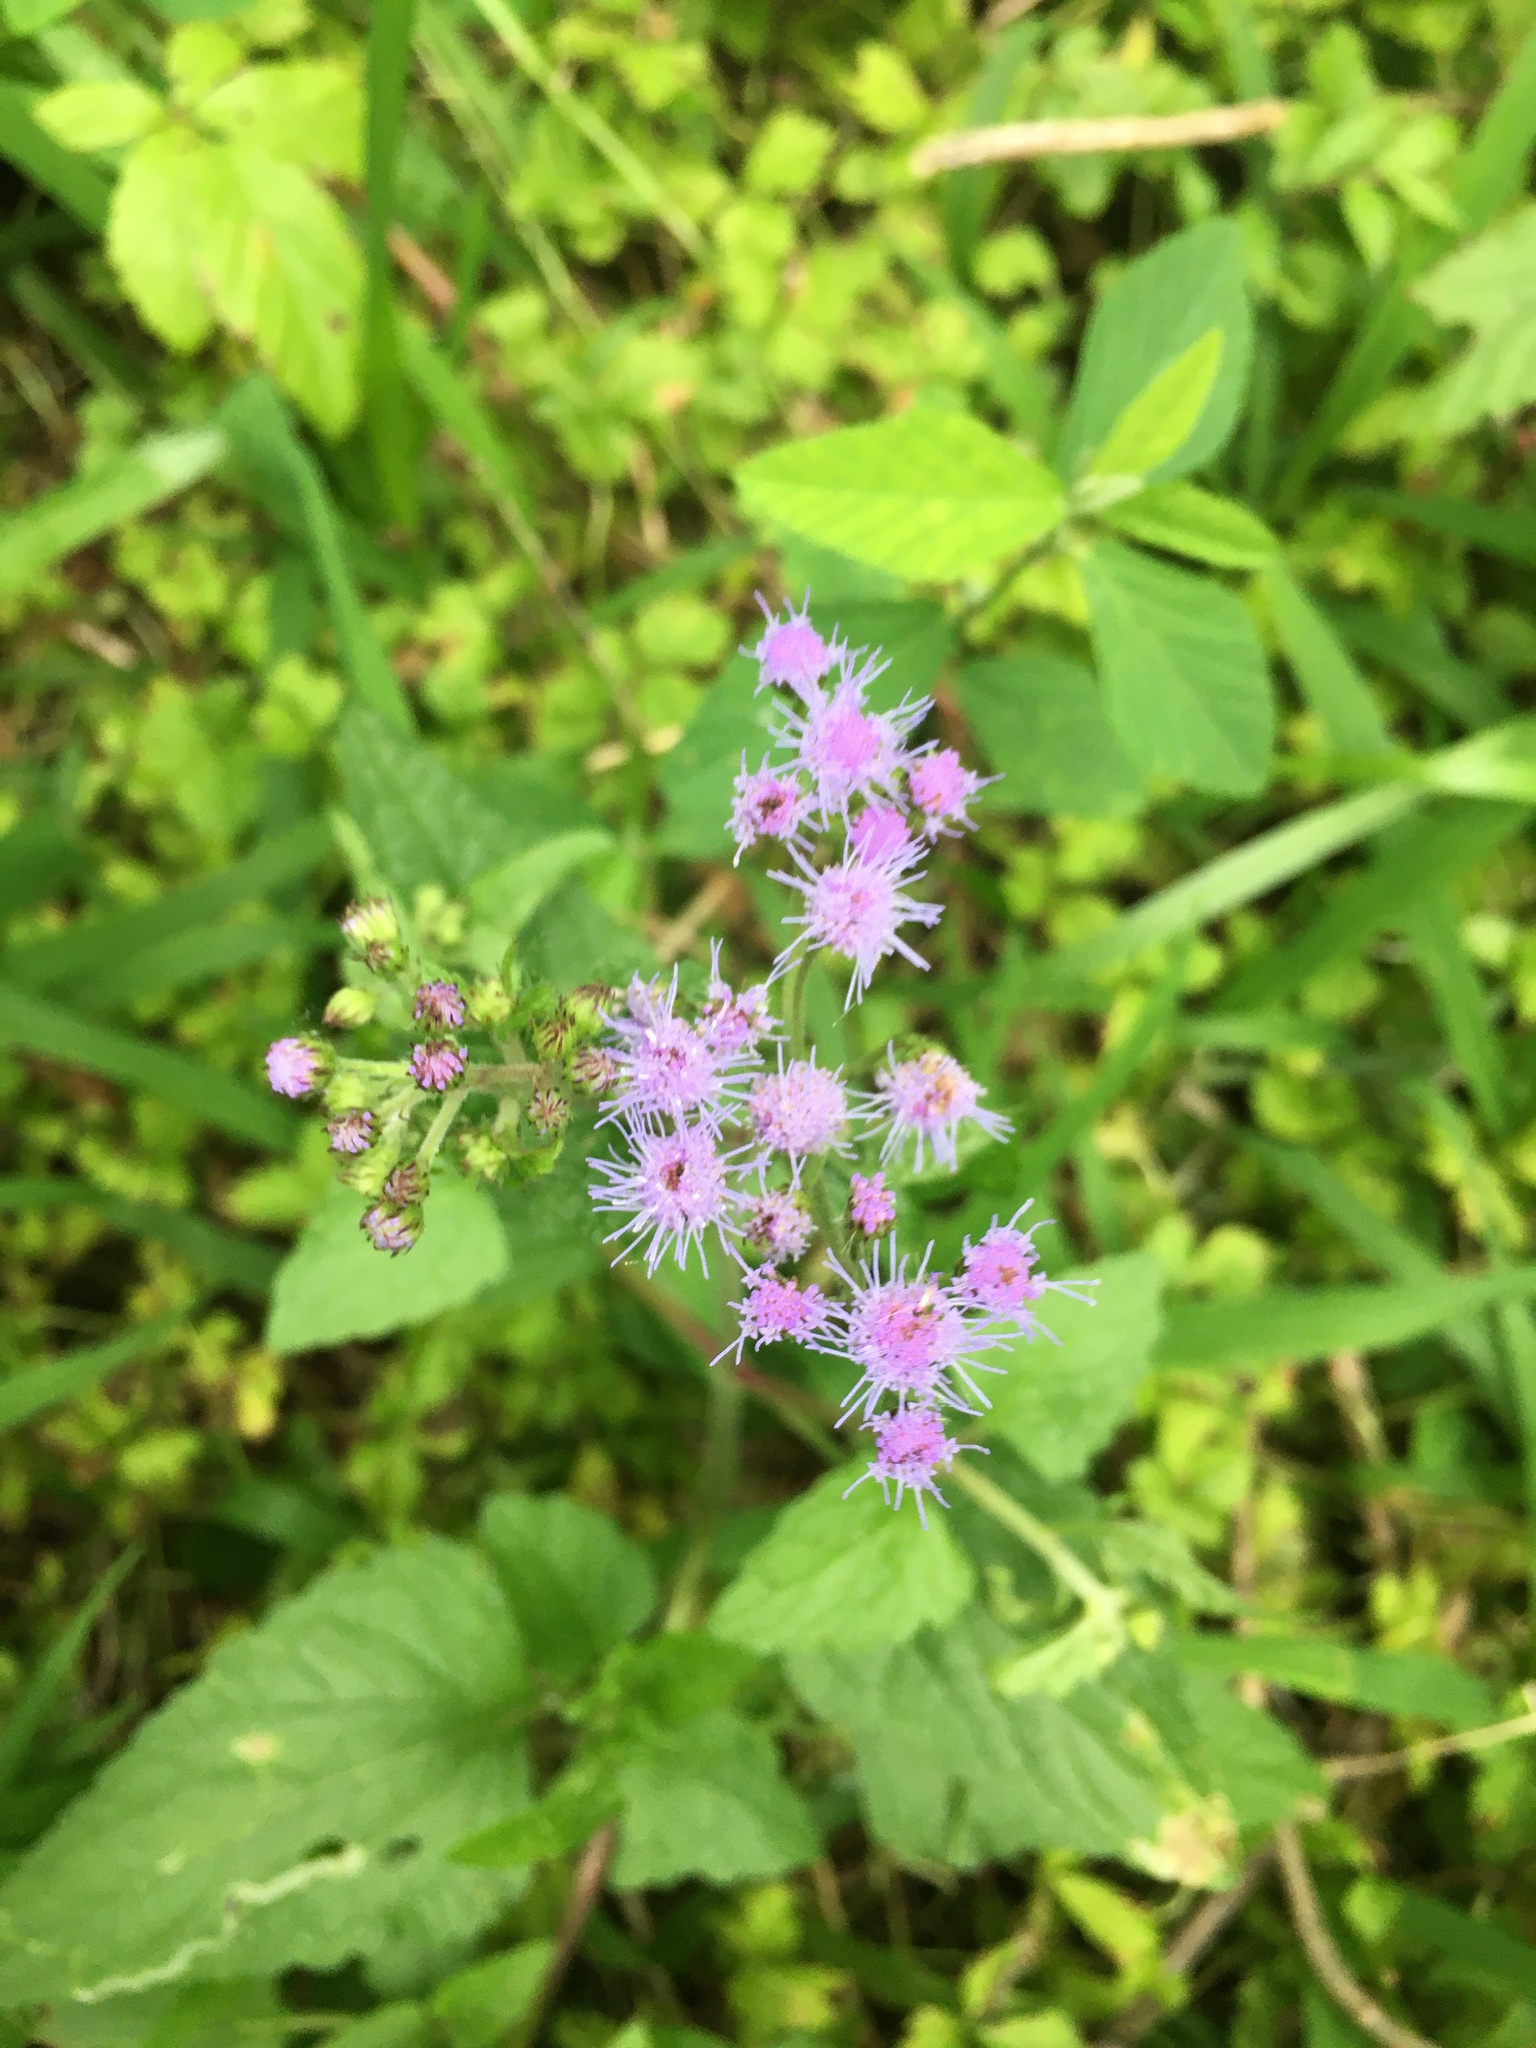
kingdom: Plantae
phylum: Tracheophyta
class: Magnoliopsida
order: Asterales
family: Asteraceae
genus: Conoclinium
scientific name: Conoclinium coelestinum
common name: Blue mistflower
